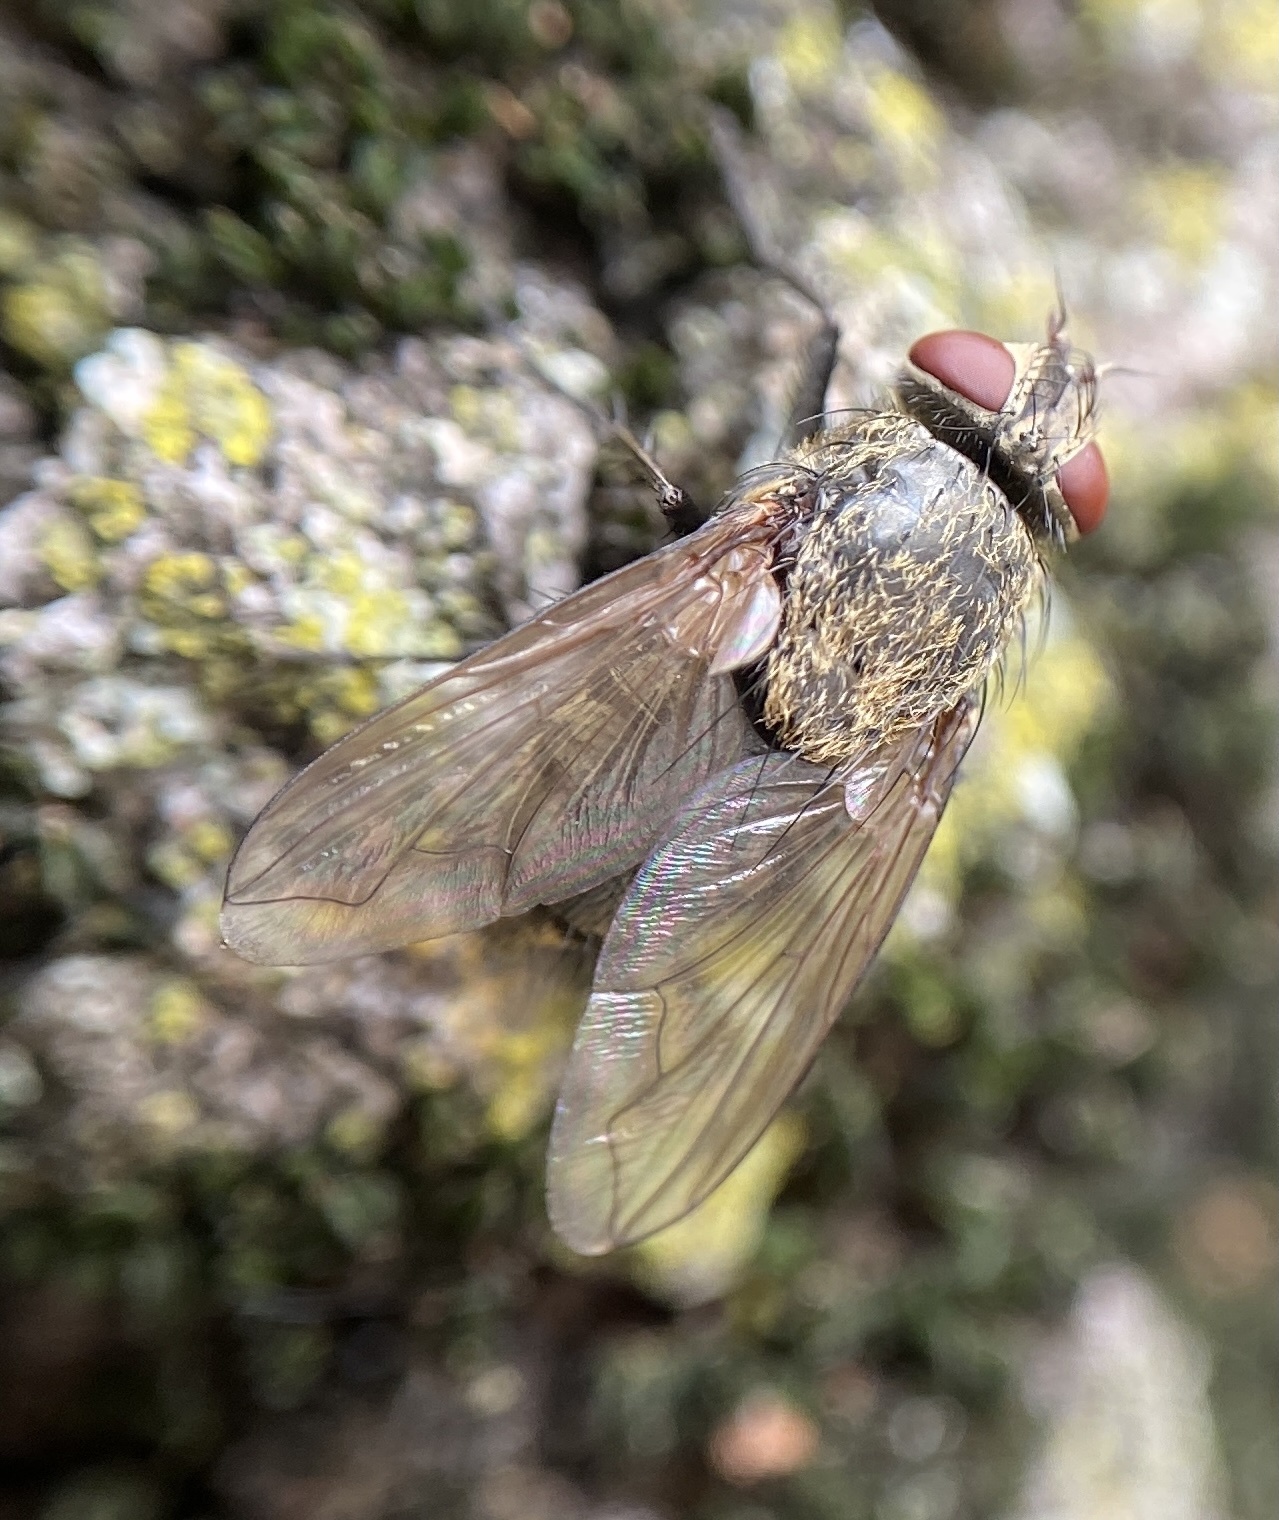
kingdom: Animalia
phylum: Arthropoda
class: Insecta
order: Diptera
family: Polleniidae
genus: Pollenia
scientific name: Pollenia
